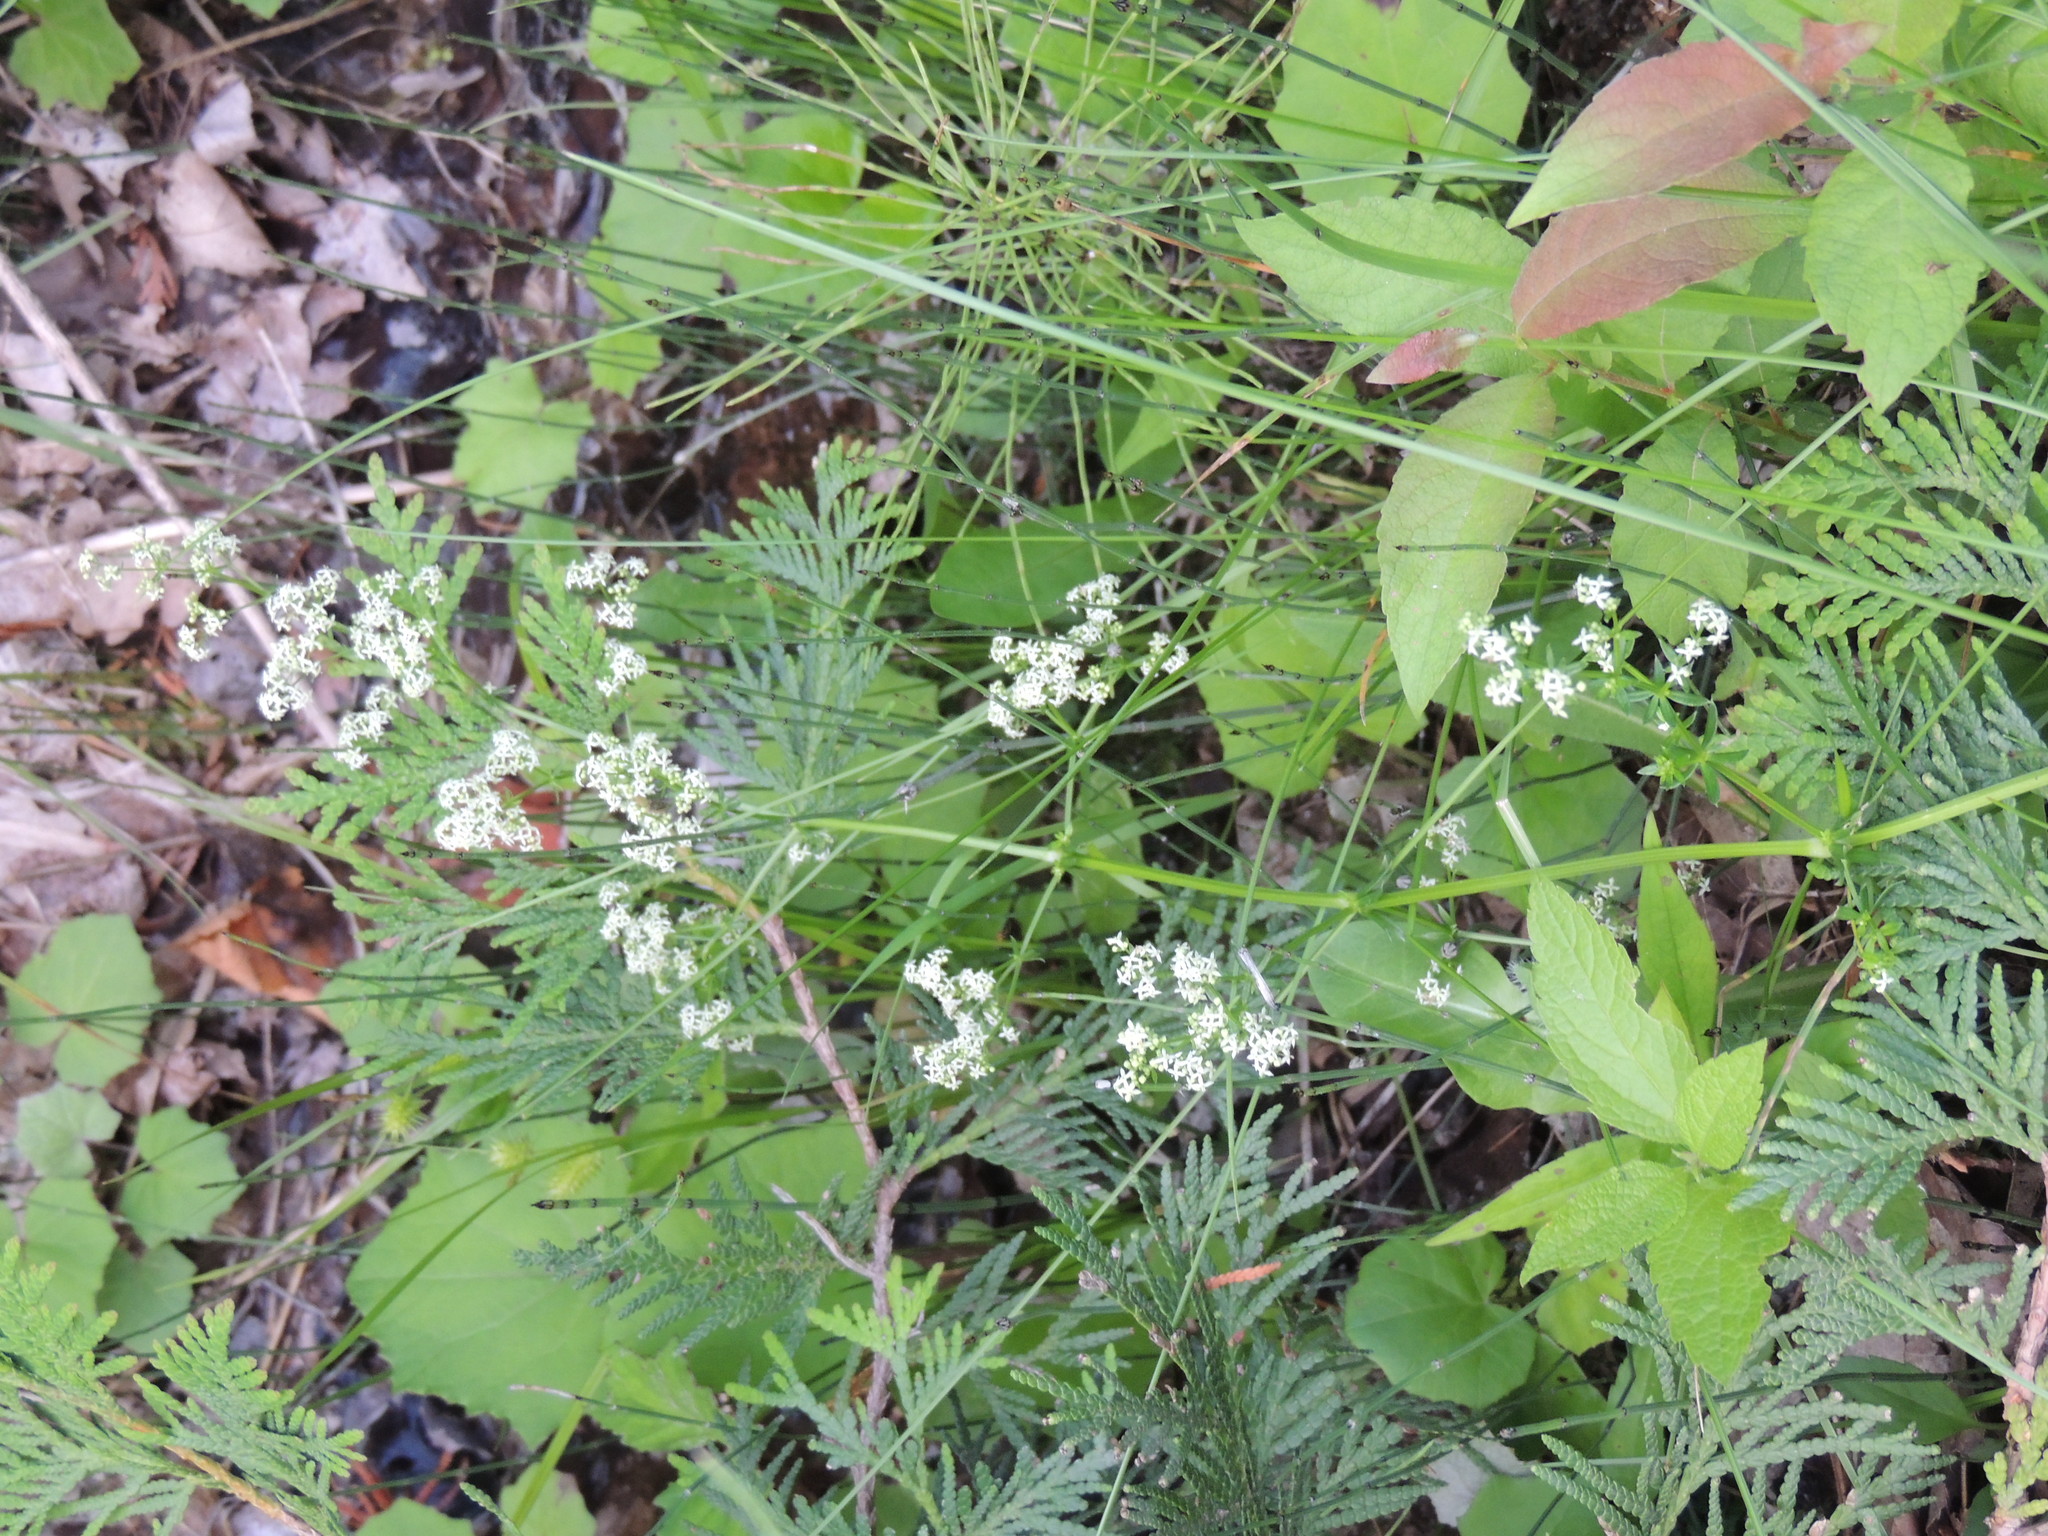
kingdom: Plantae
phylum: Tracheophyta
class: Magnoliopsida
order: Gentianales
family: Rubiaceae
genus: Galium
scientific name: Galium mollugo
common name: Hedge bedstraw
